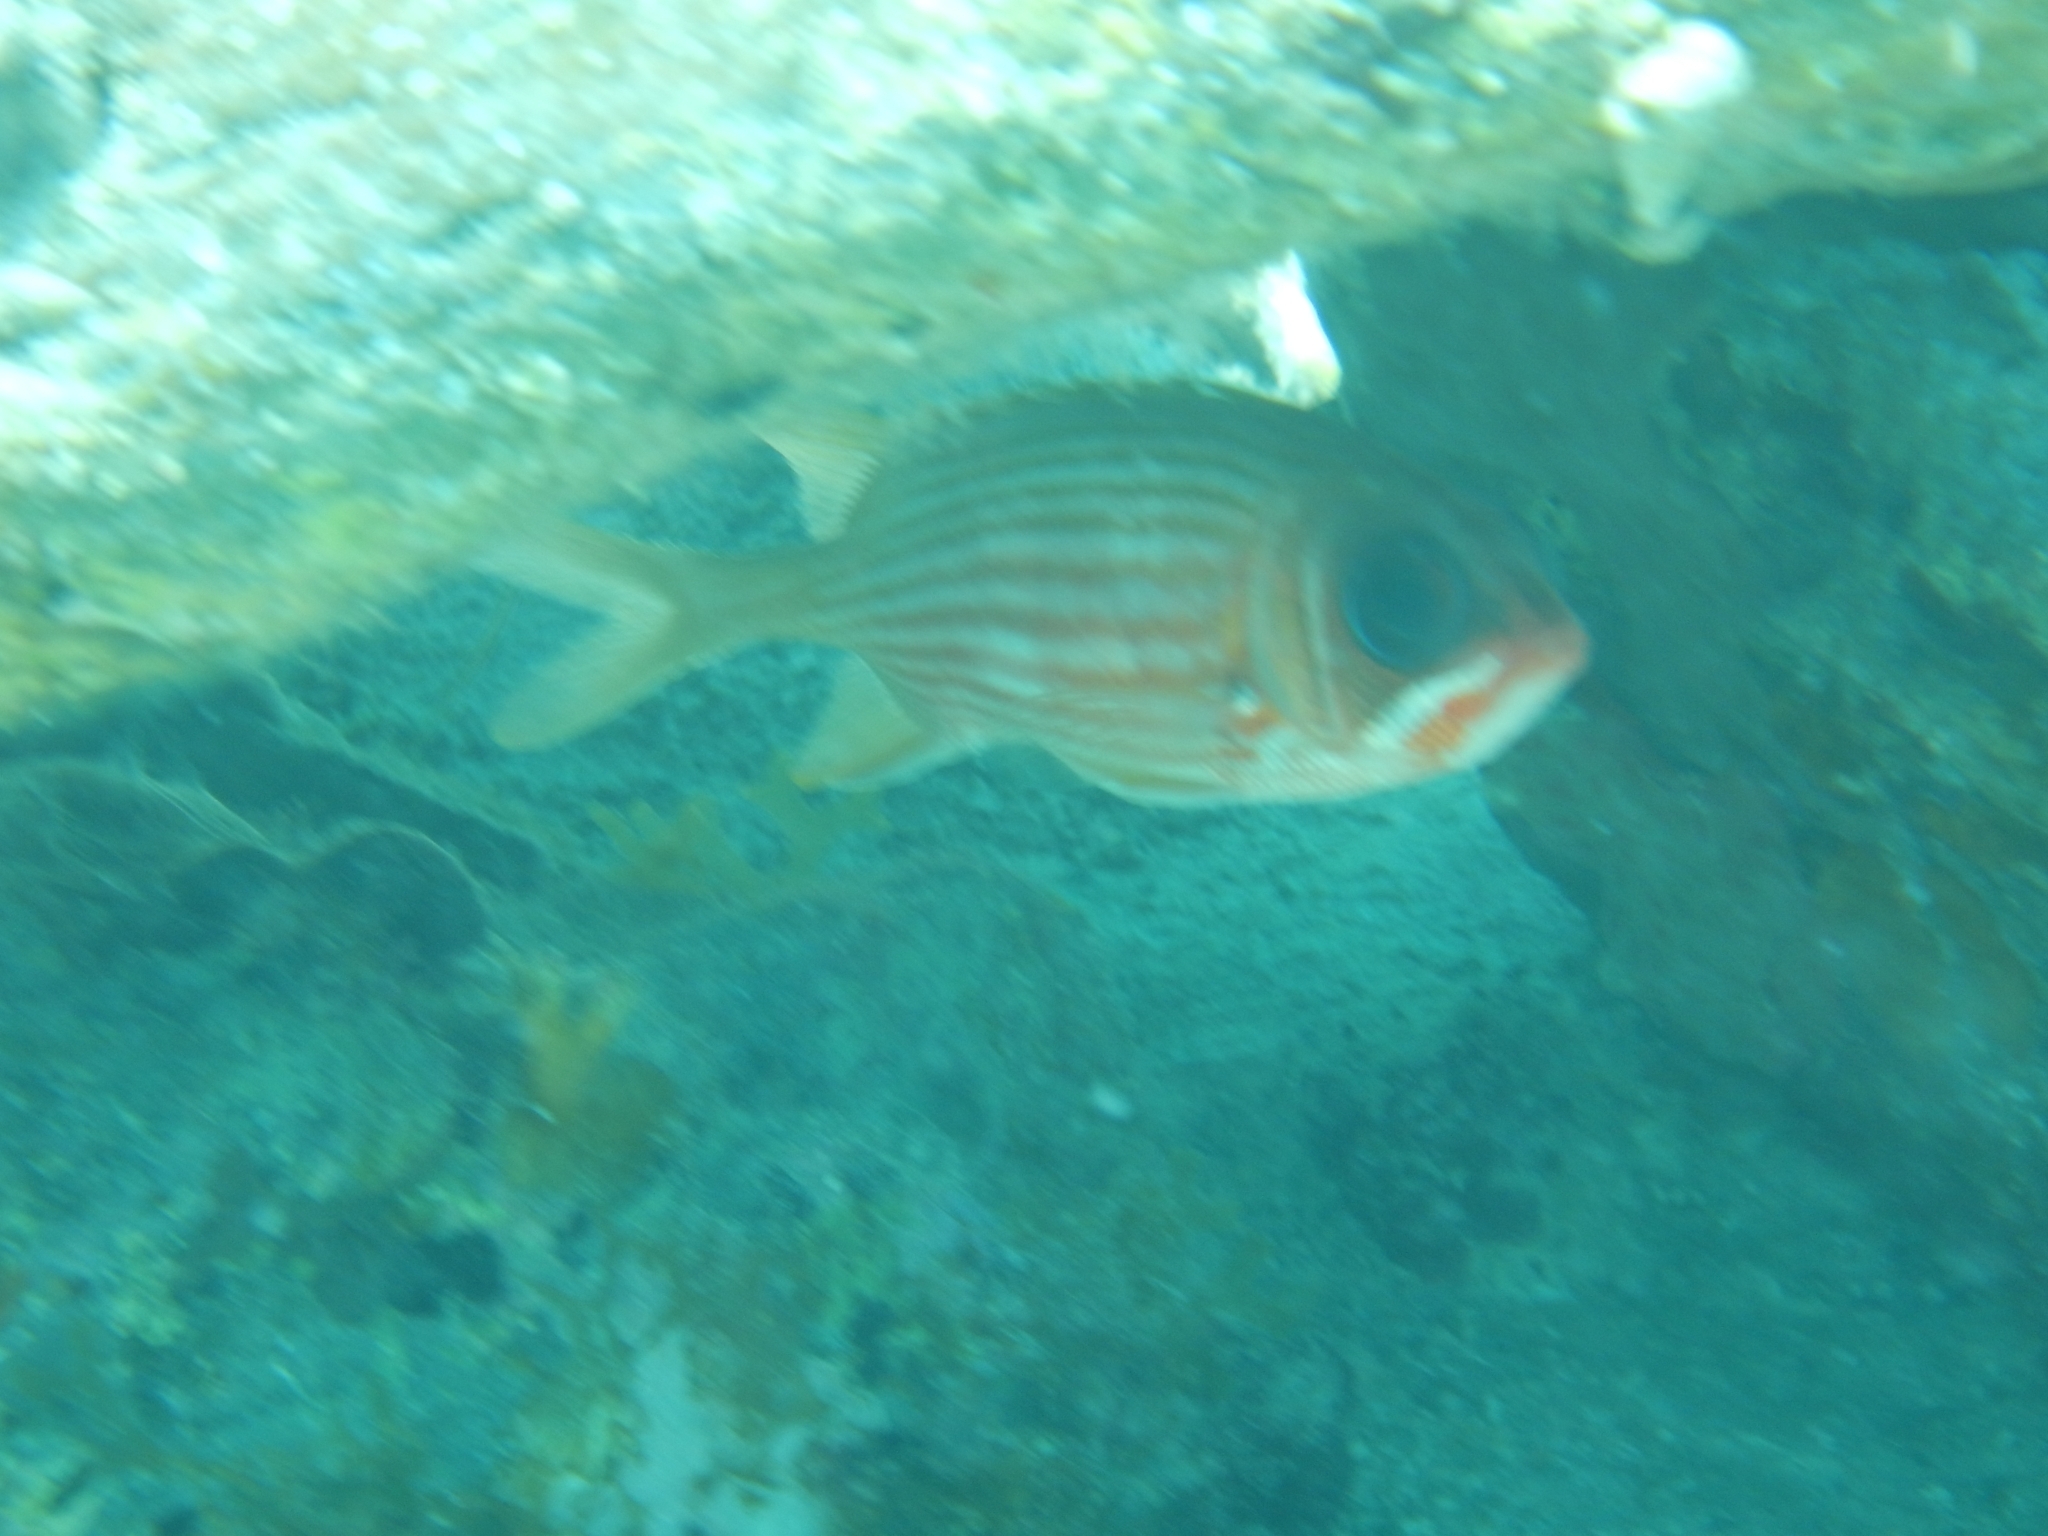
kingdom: Animalia
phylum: Chordata
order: Beryciformes
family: Holocentridae
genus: Holocentrus
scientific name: Holocentrus rufus
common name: Longspine squirrelfish
